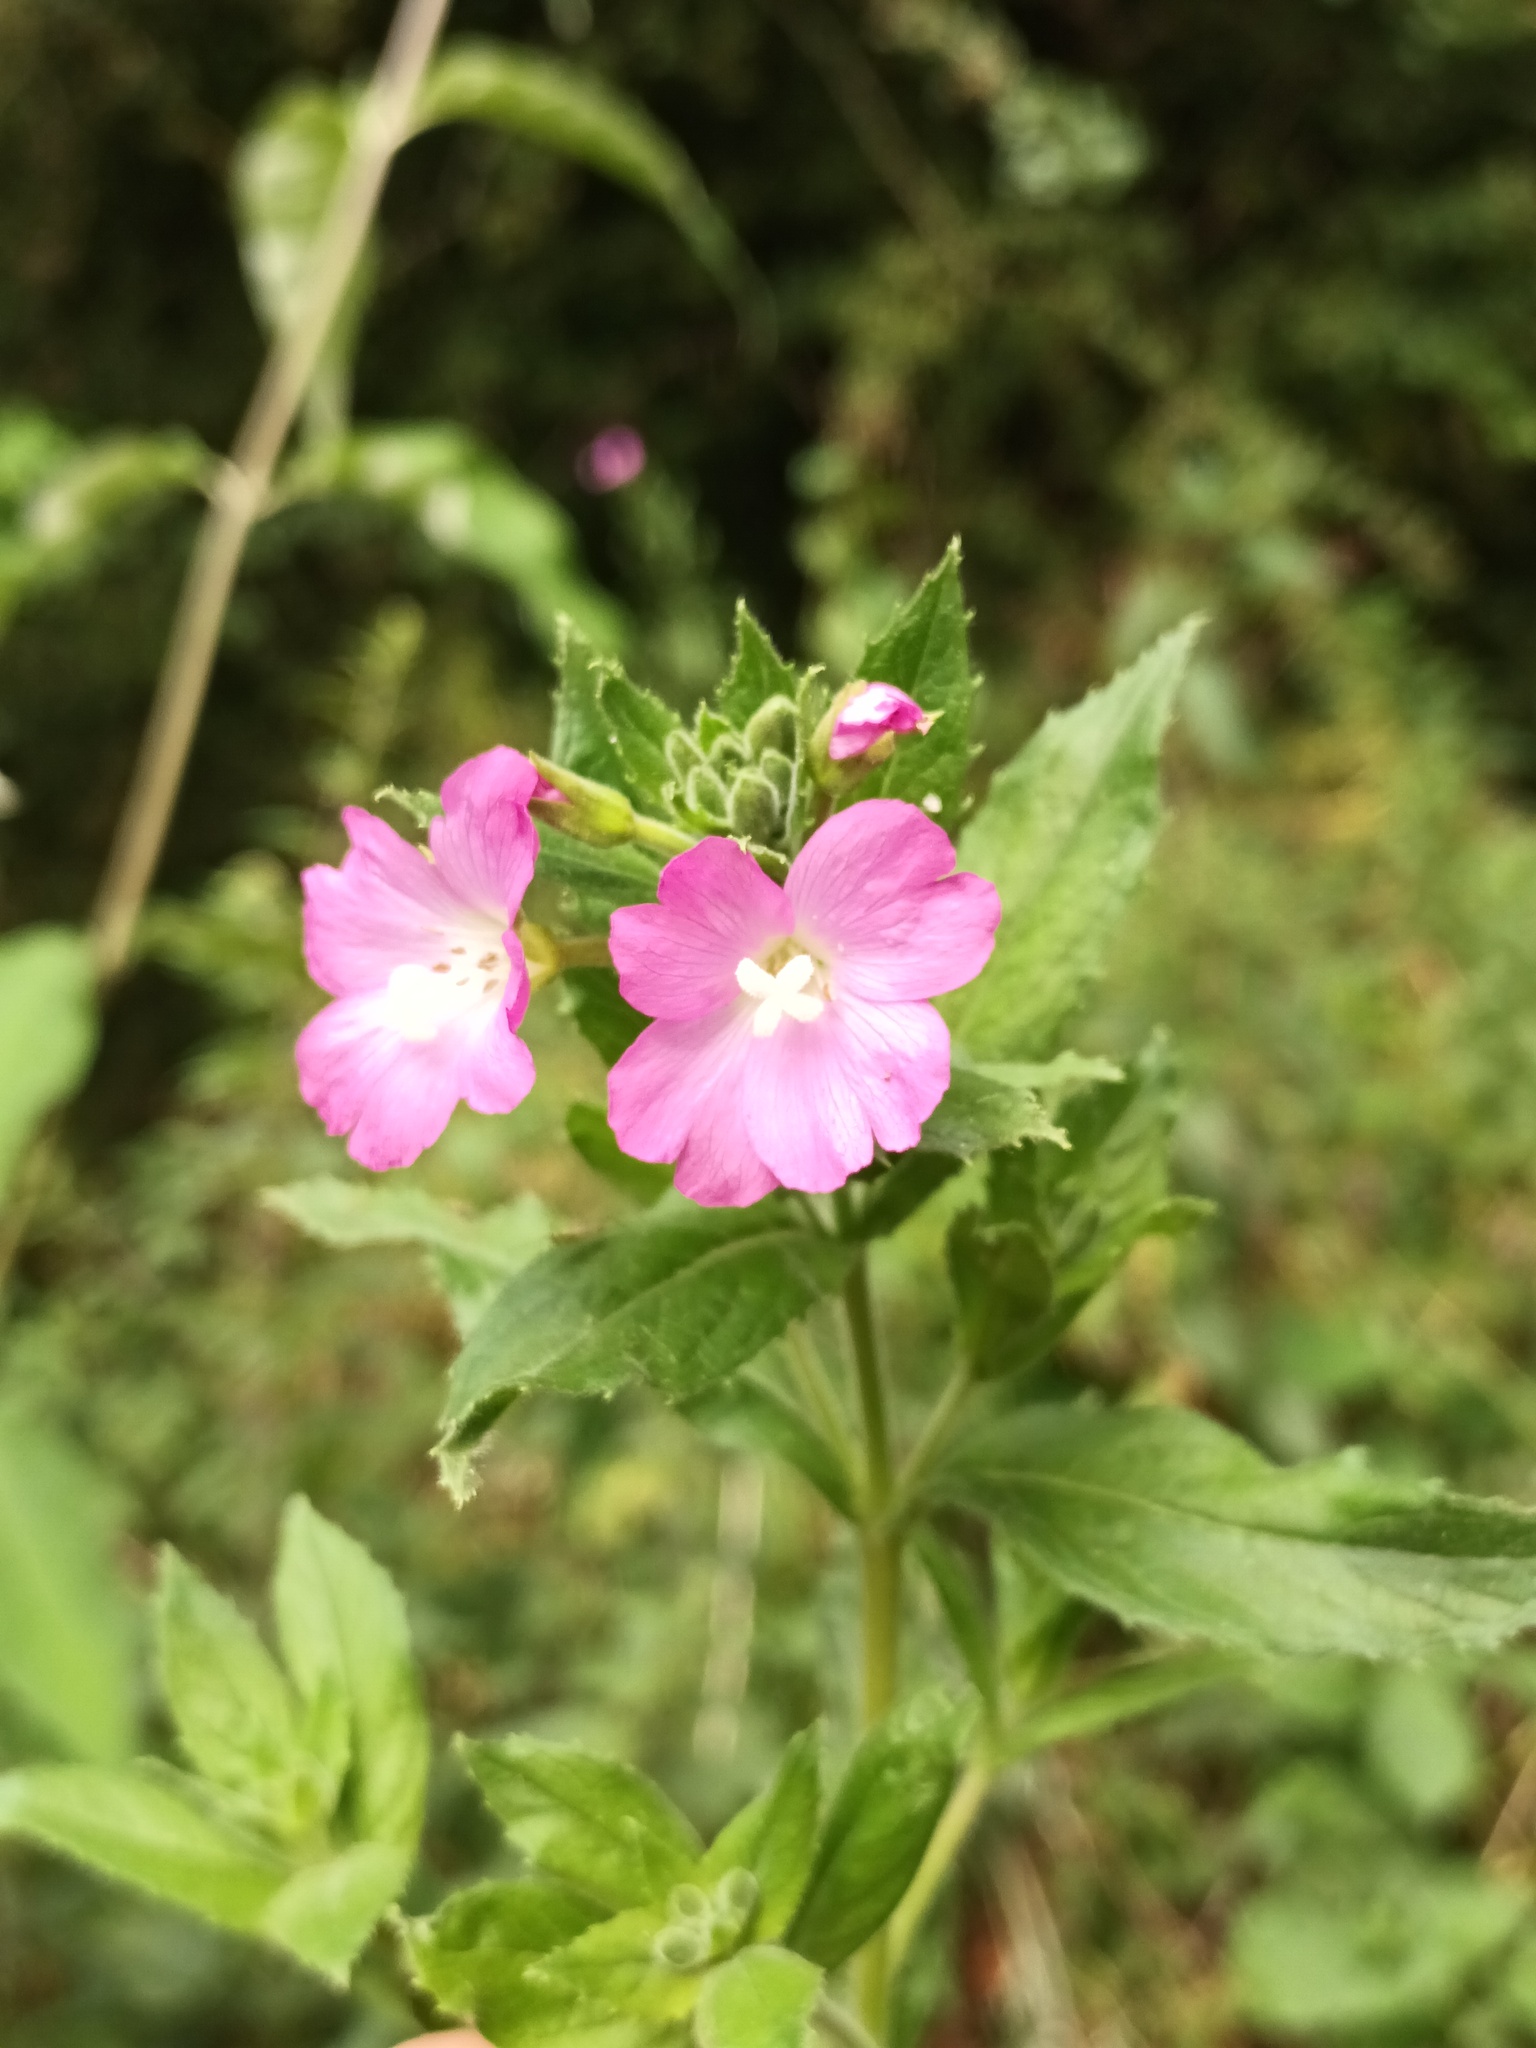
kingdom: Plantae
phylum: Tracheophyta
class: Magnoliopsida
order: Myrtales
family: Onagraceae
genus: Epilobium
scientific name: Epilobium hirsutum
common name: Great willowherb
